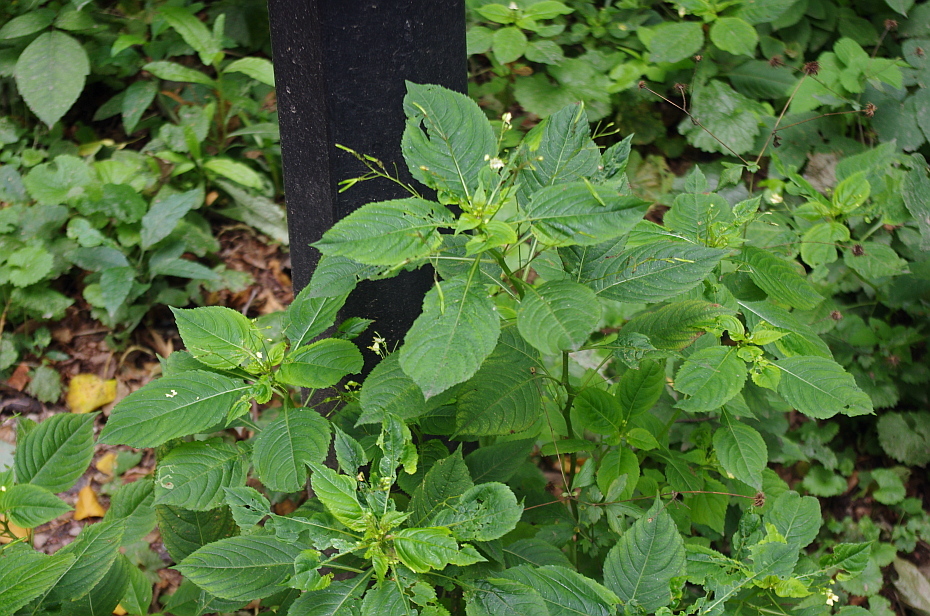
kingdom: Plantae
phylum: Tracheophyta
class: Magnoliopsida
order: Ericales
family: Balsaminaceae
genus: Impatiens
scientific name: Impatiens parviflora
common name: Small balsam
